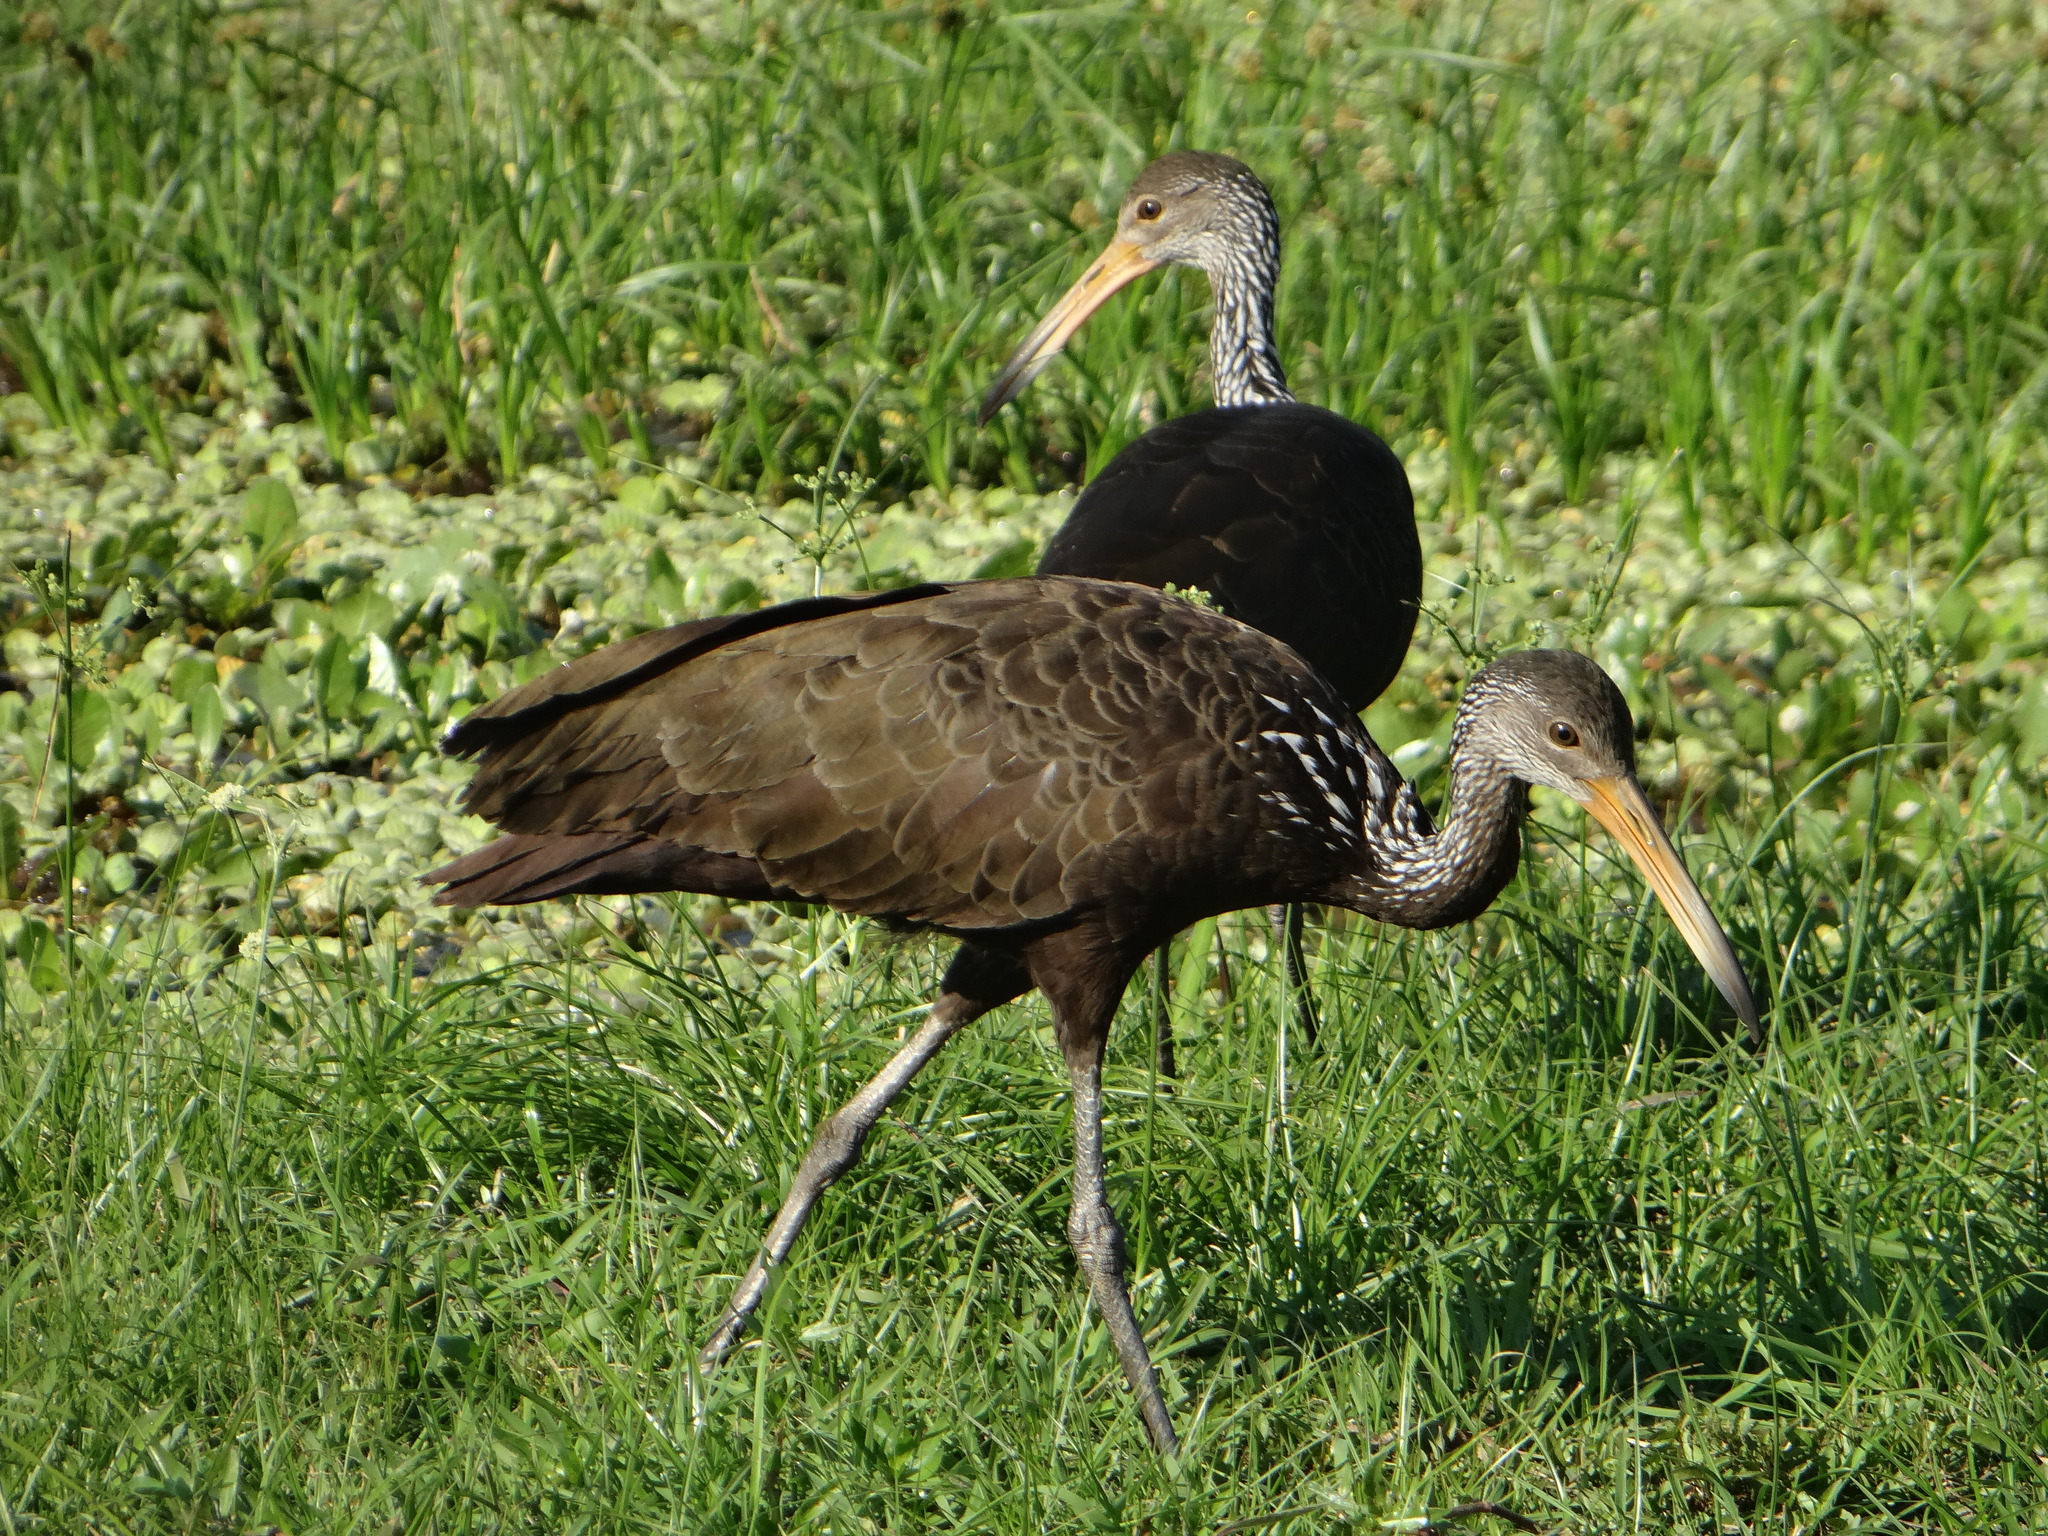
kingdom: Animalia
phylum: Chordata
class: Aves
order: Gruiformes
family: Aramidae
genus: Aramus
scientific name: Aramus guarauna
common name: Limpkin
